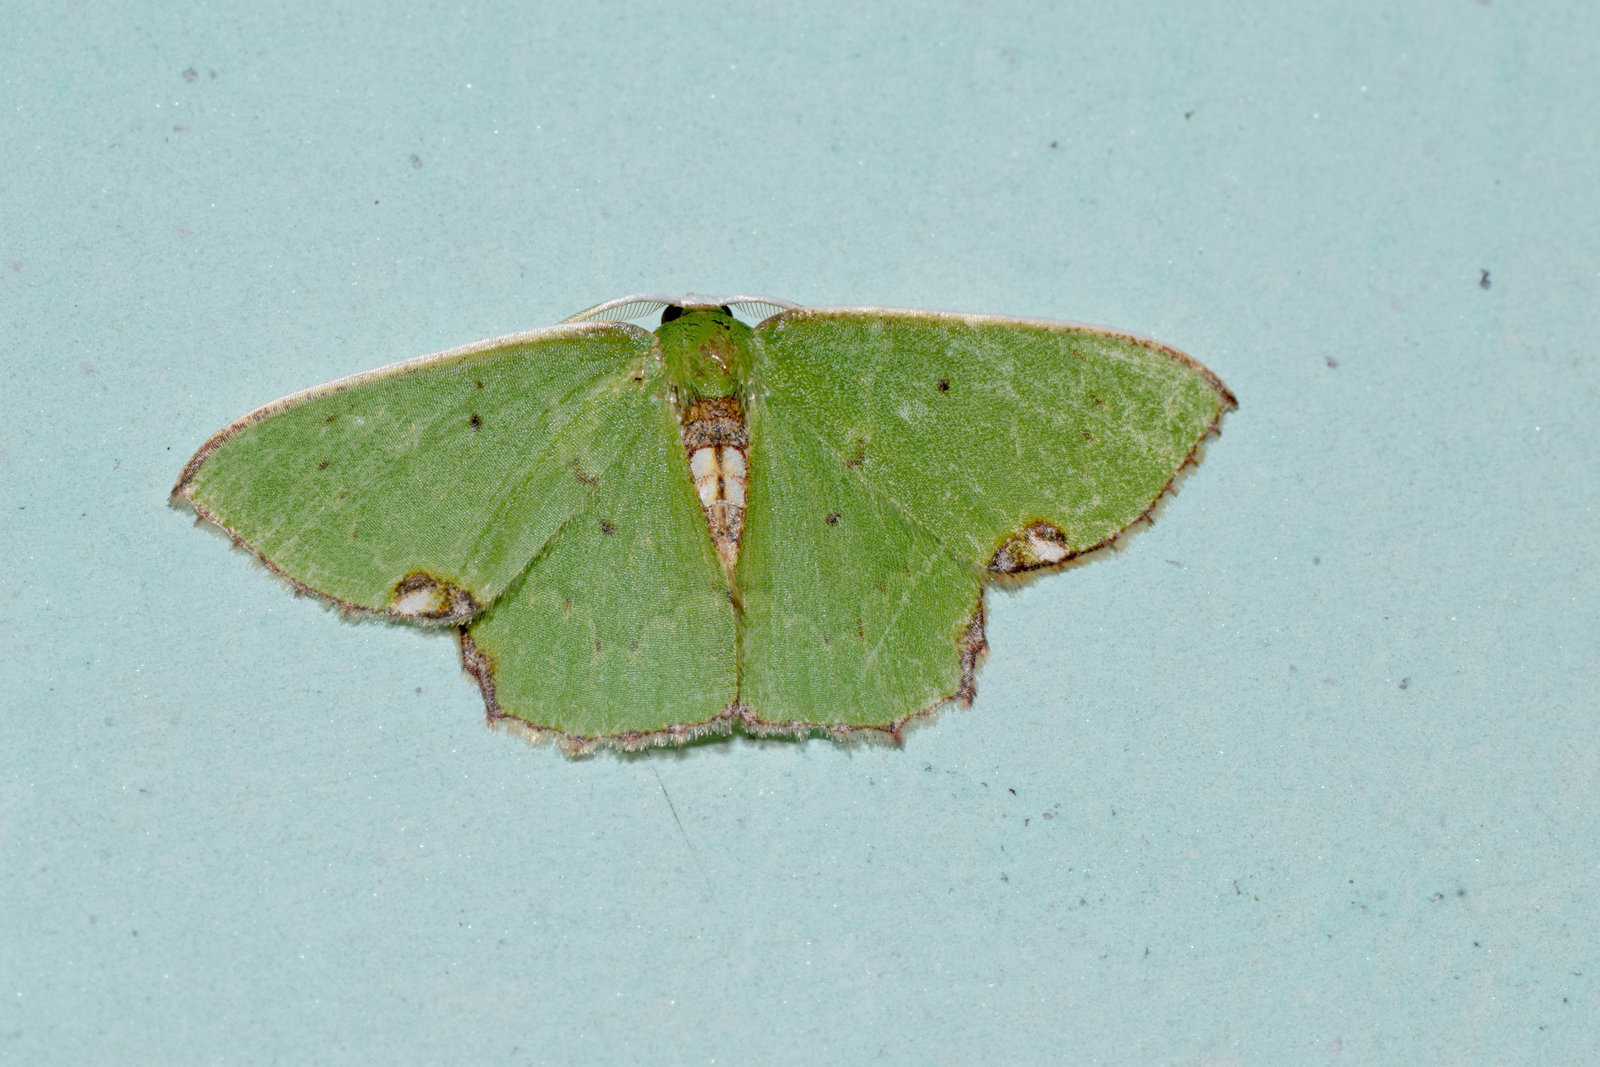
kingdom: Animalia
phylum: Arthropoda
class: Insecta
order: Lepidoptera
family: Geometridae
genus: Spaniocentra
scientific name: Spaniocentra hollowayi
